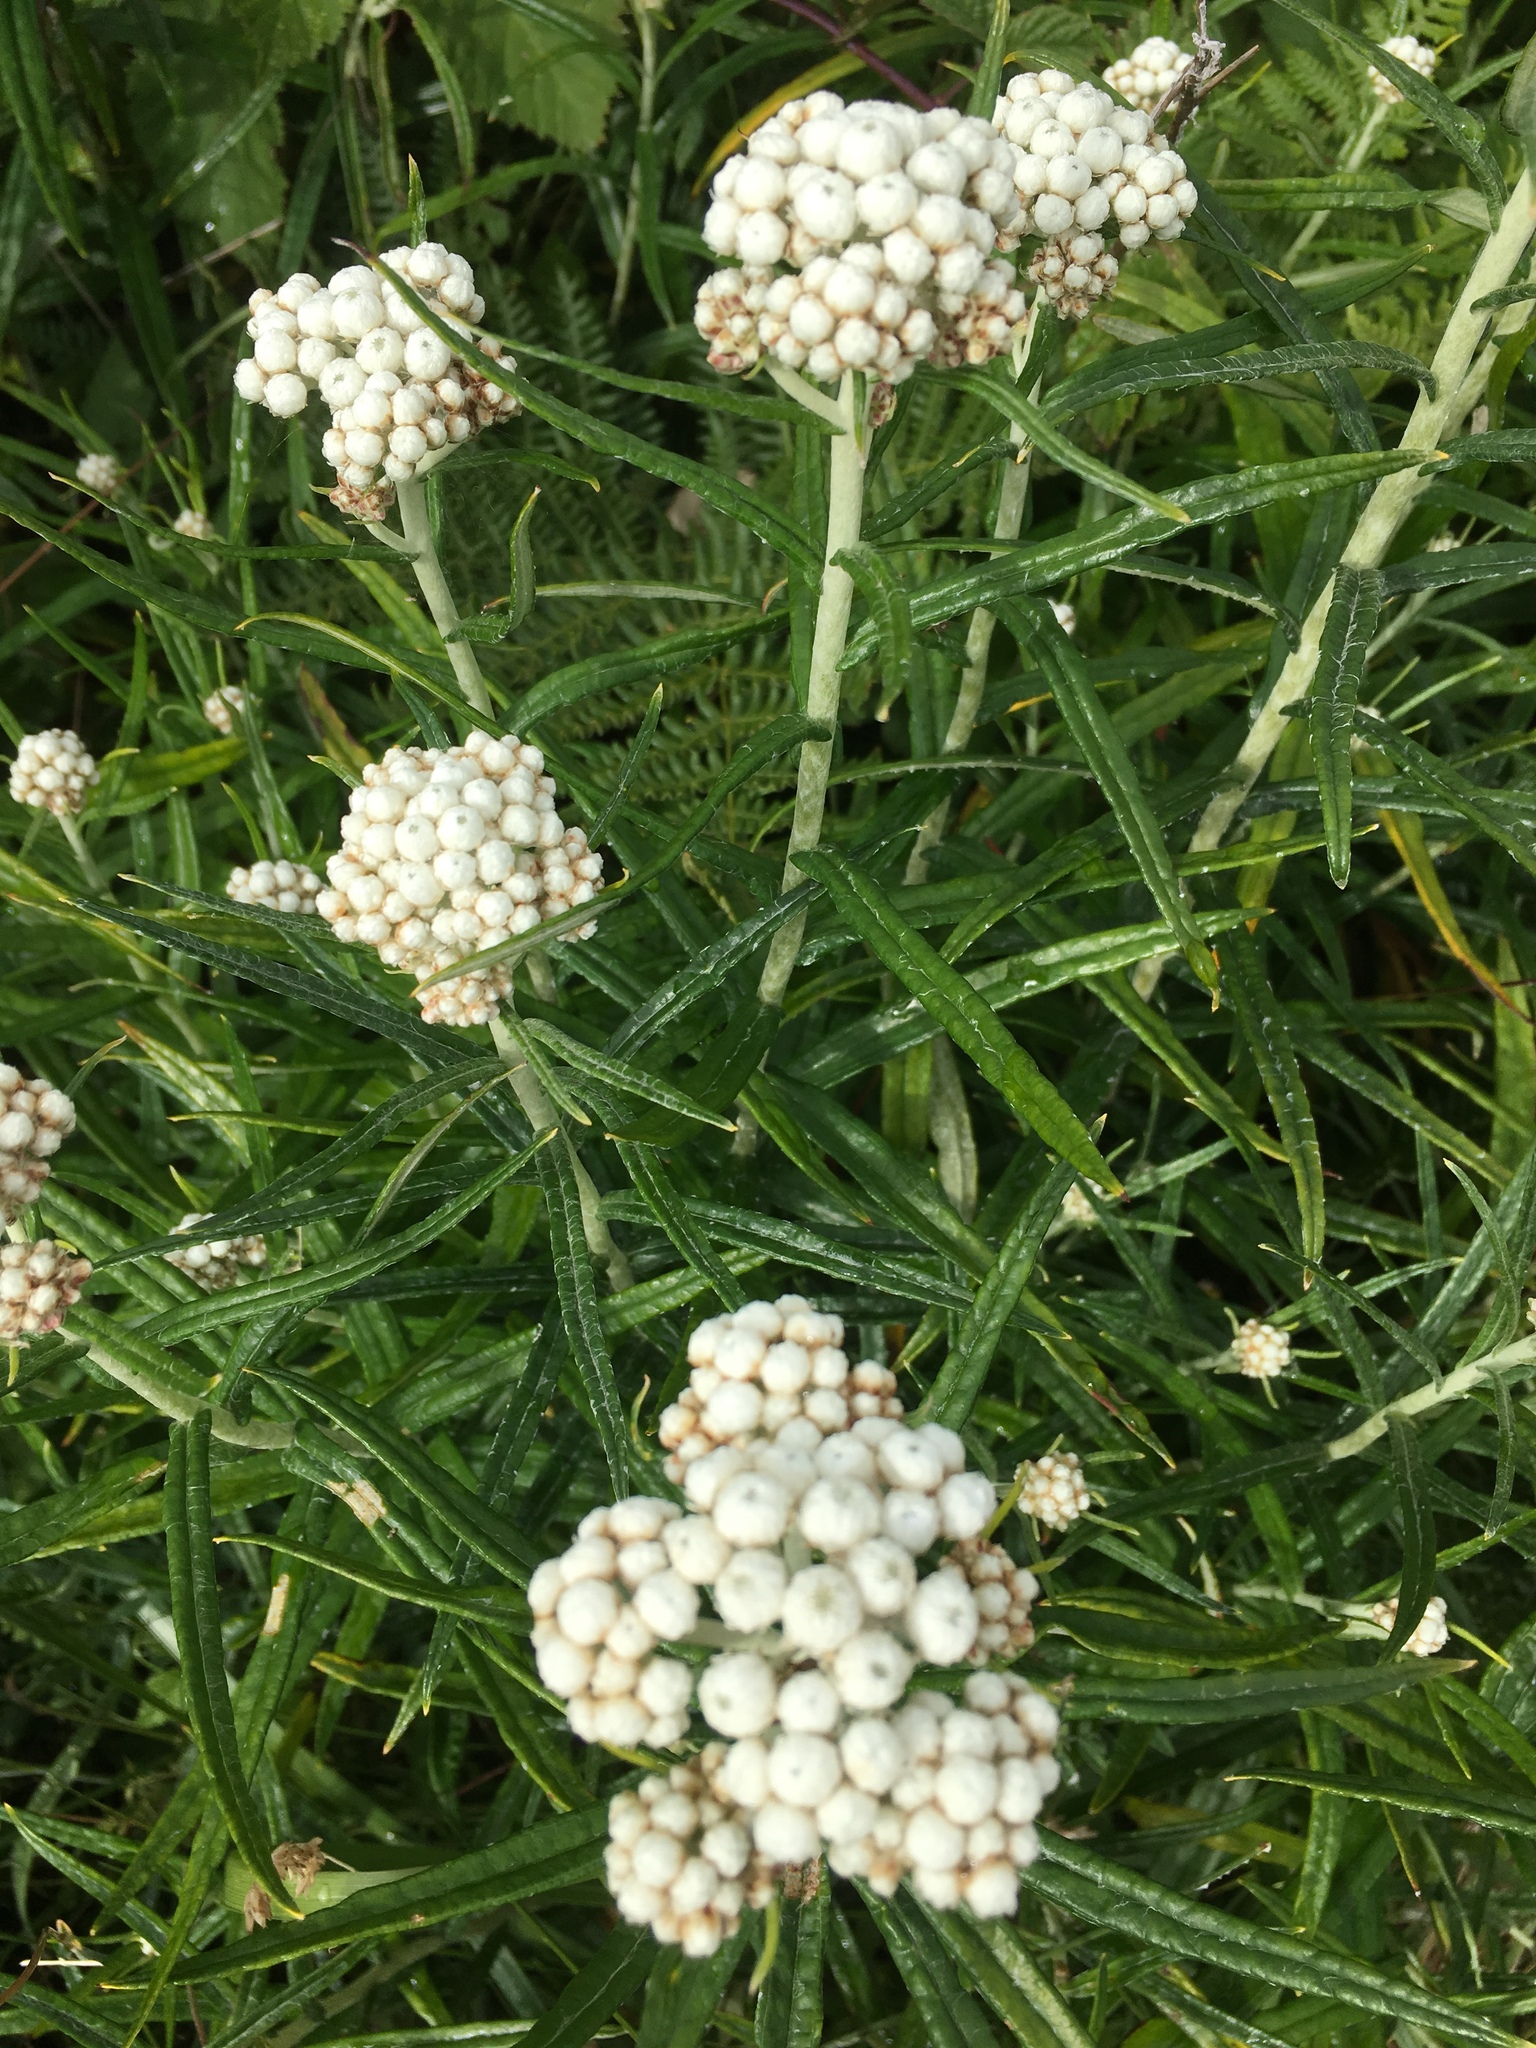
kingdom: Plantae
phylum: Tracheophyta
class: Magnoliopsida
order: Asterales
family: Asteraceae
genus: Anaphalis
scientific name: Anaphalis margaritacea
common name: Pearly everlasting
